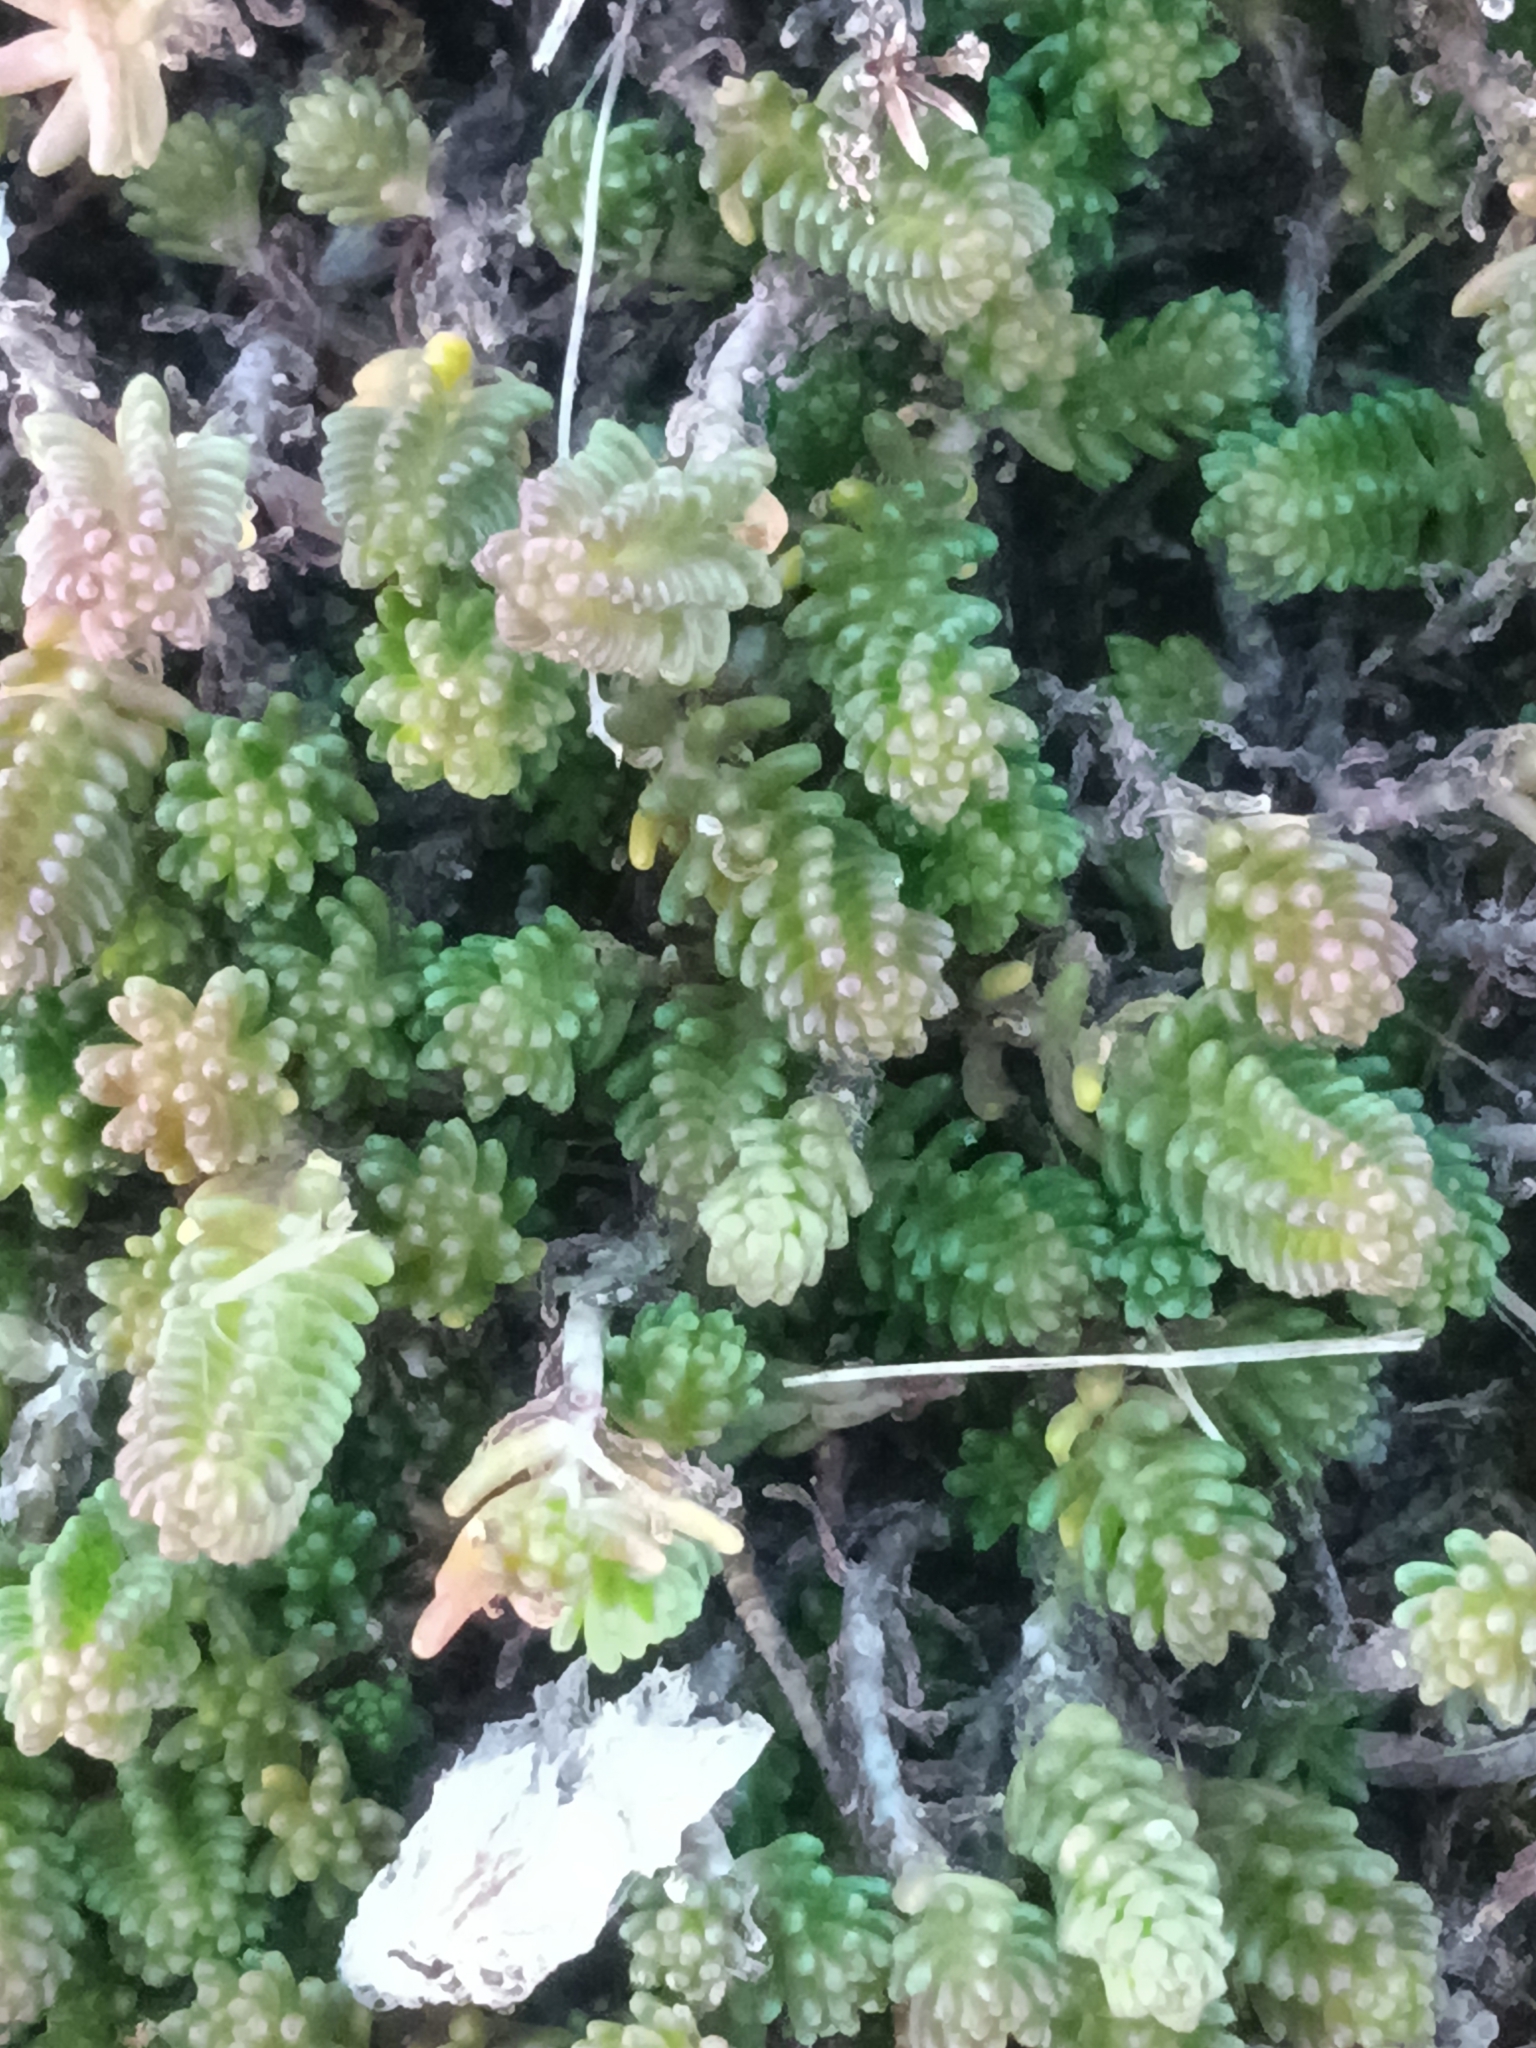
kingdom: Plantae
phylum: Tracheophyta
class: Magnoliopsida
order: Saxifragales
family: Crassulaceae
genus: Sedum
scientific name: Sedum sexangulare
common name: Tasteless stonecrop
